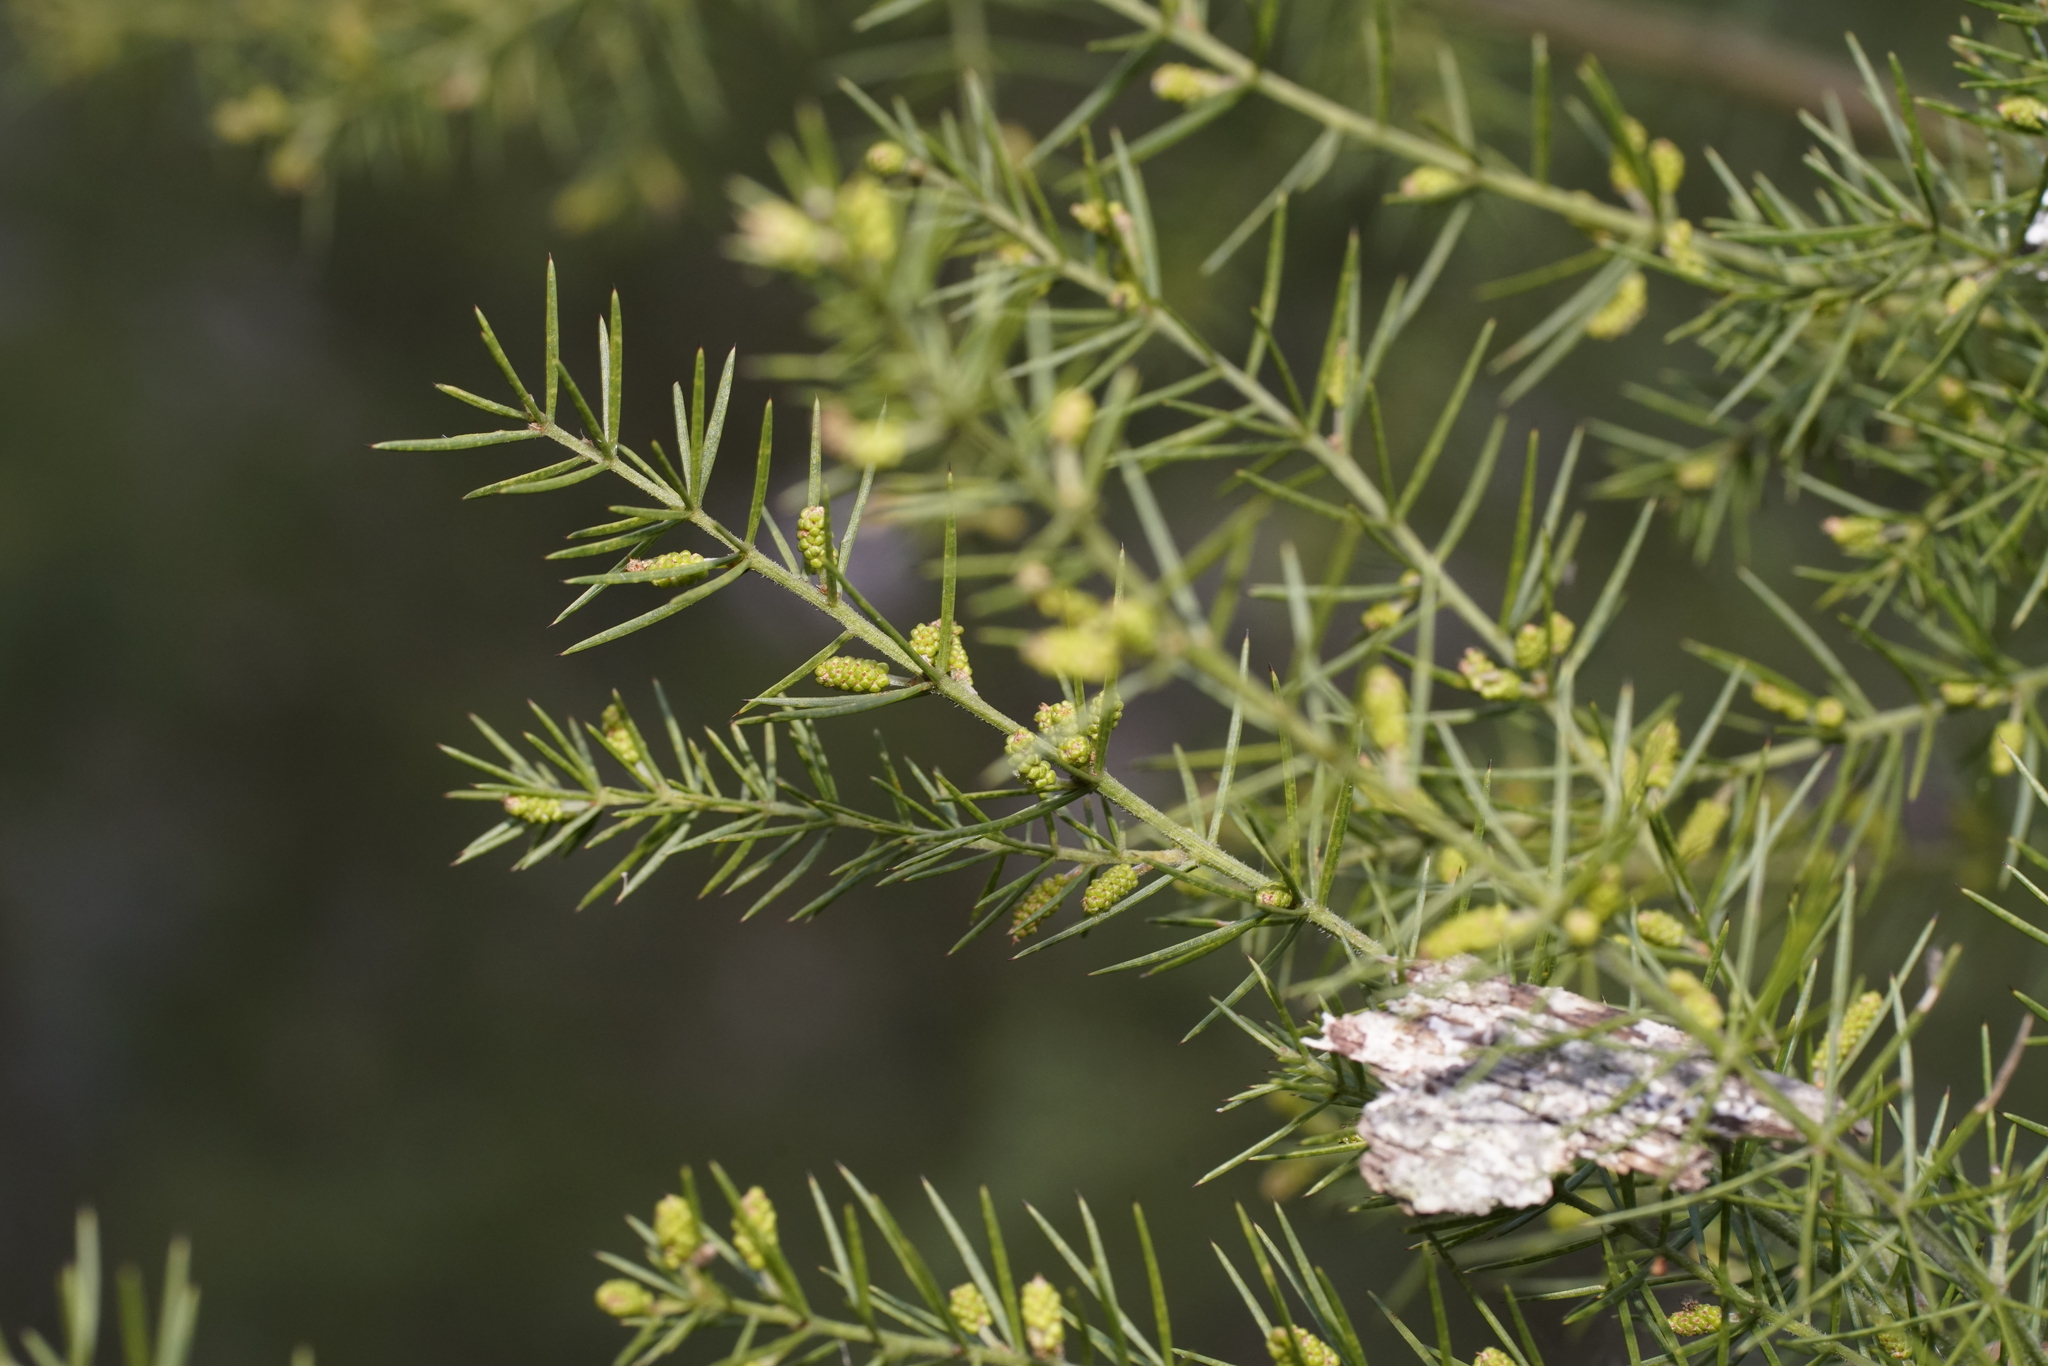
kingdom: Plantae
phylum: Tracheophyta
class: Magnoliopsida
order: Fabales
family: Fabaceae
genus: Acacia
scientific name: Acacia verticillata
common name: Prickly moses
